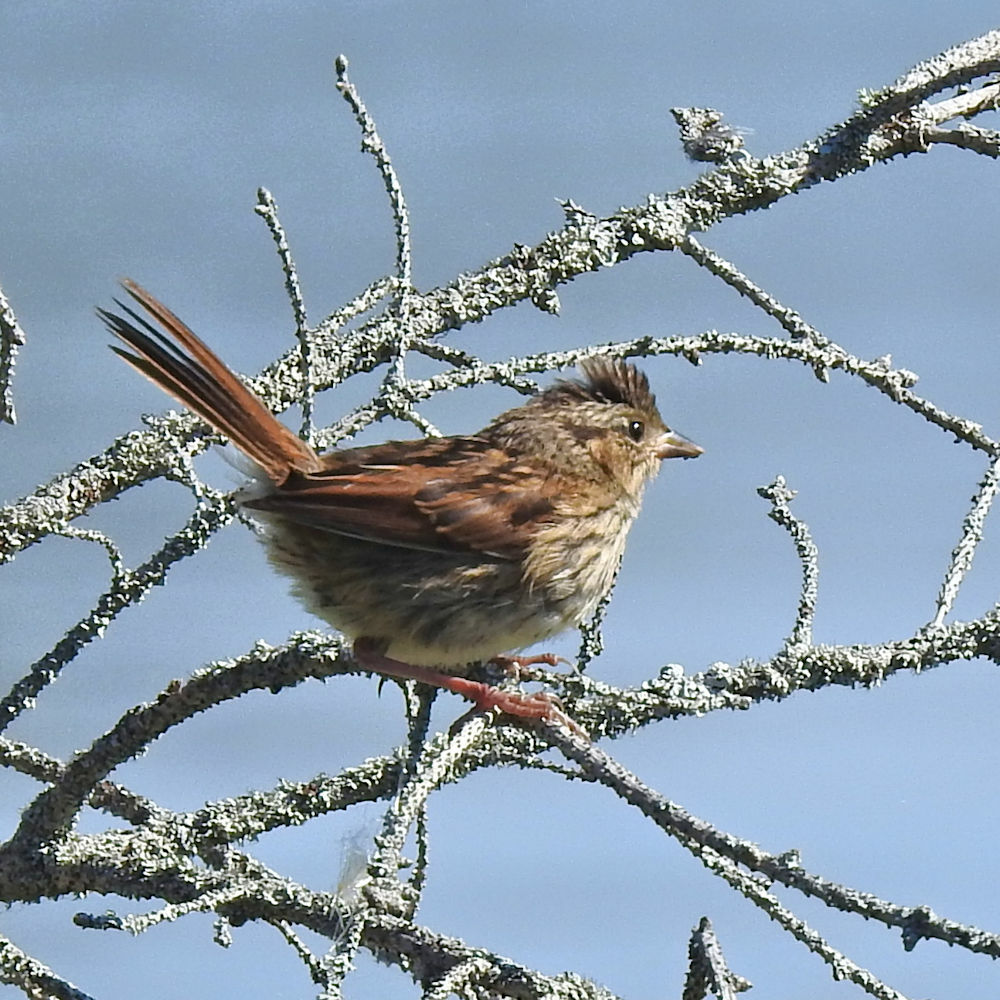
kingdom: Animalia
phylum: Chordata
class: Aves
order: Passeriformes
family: Passerellidae
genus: Melospiza
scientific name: Melospiza georgiana
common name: Swamp sparrow
